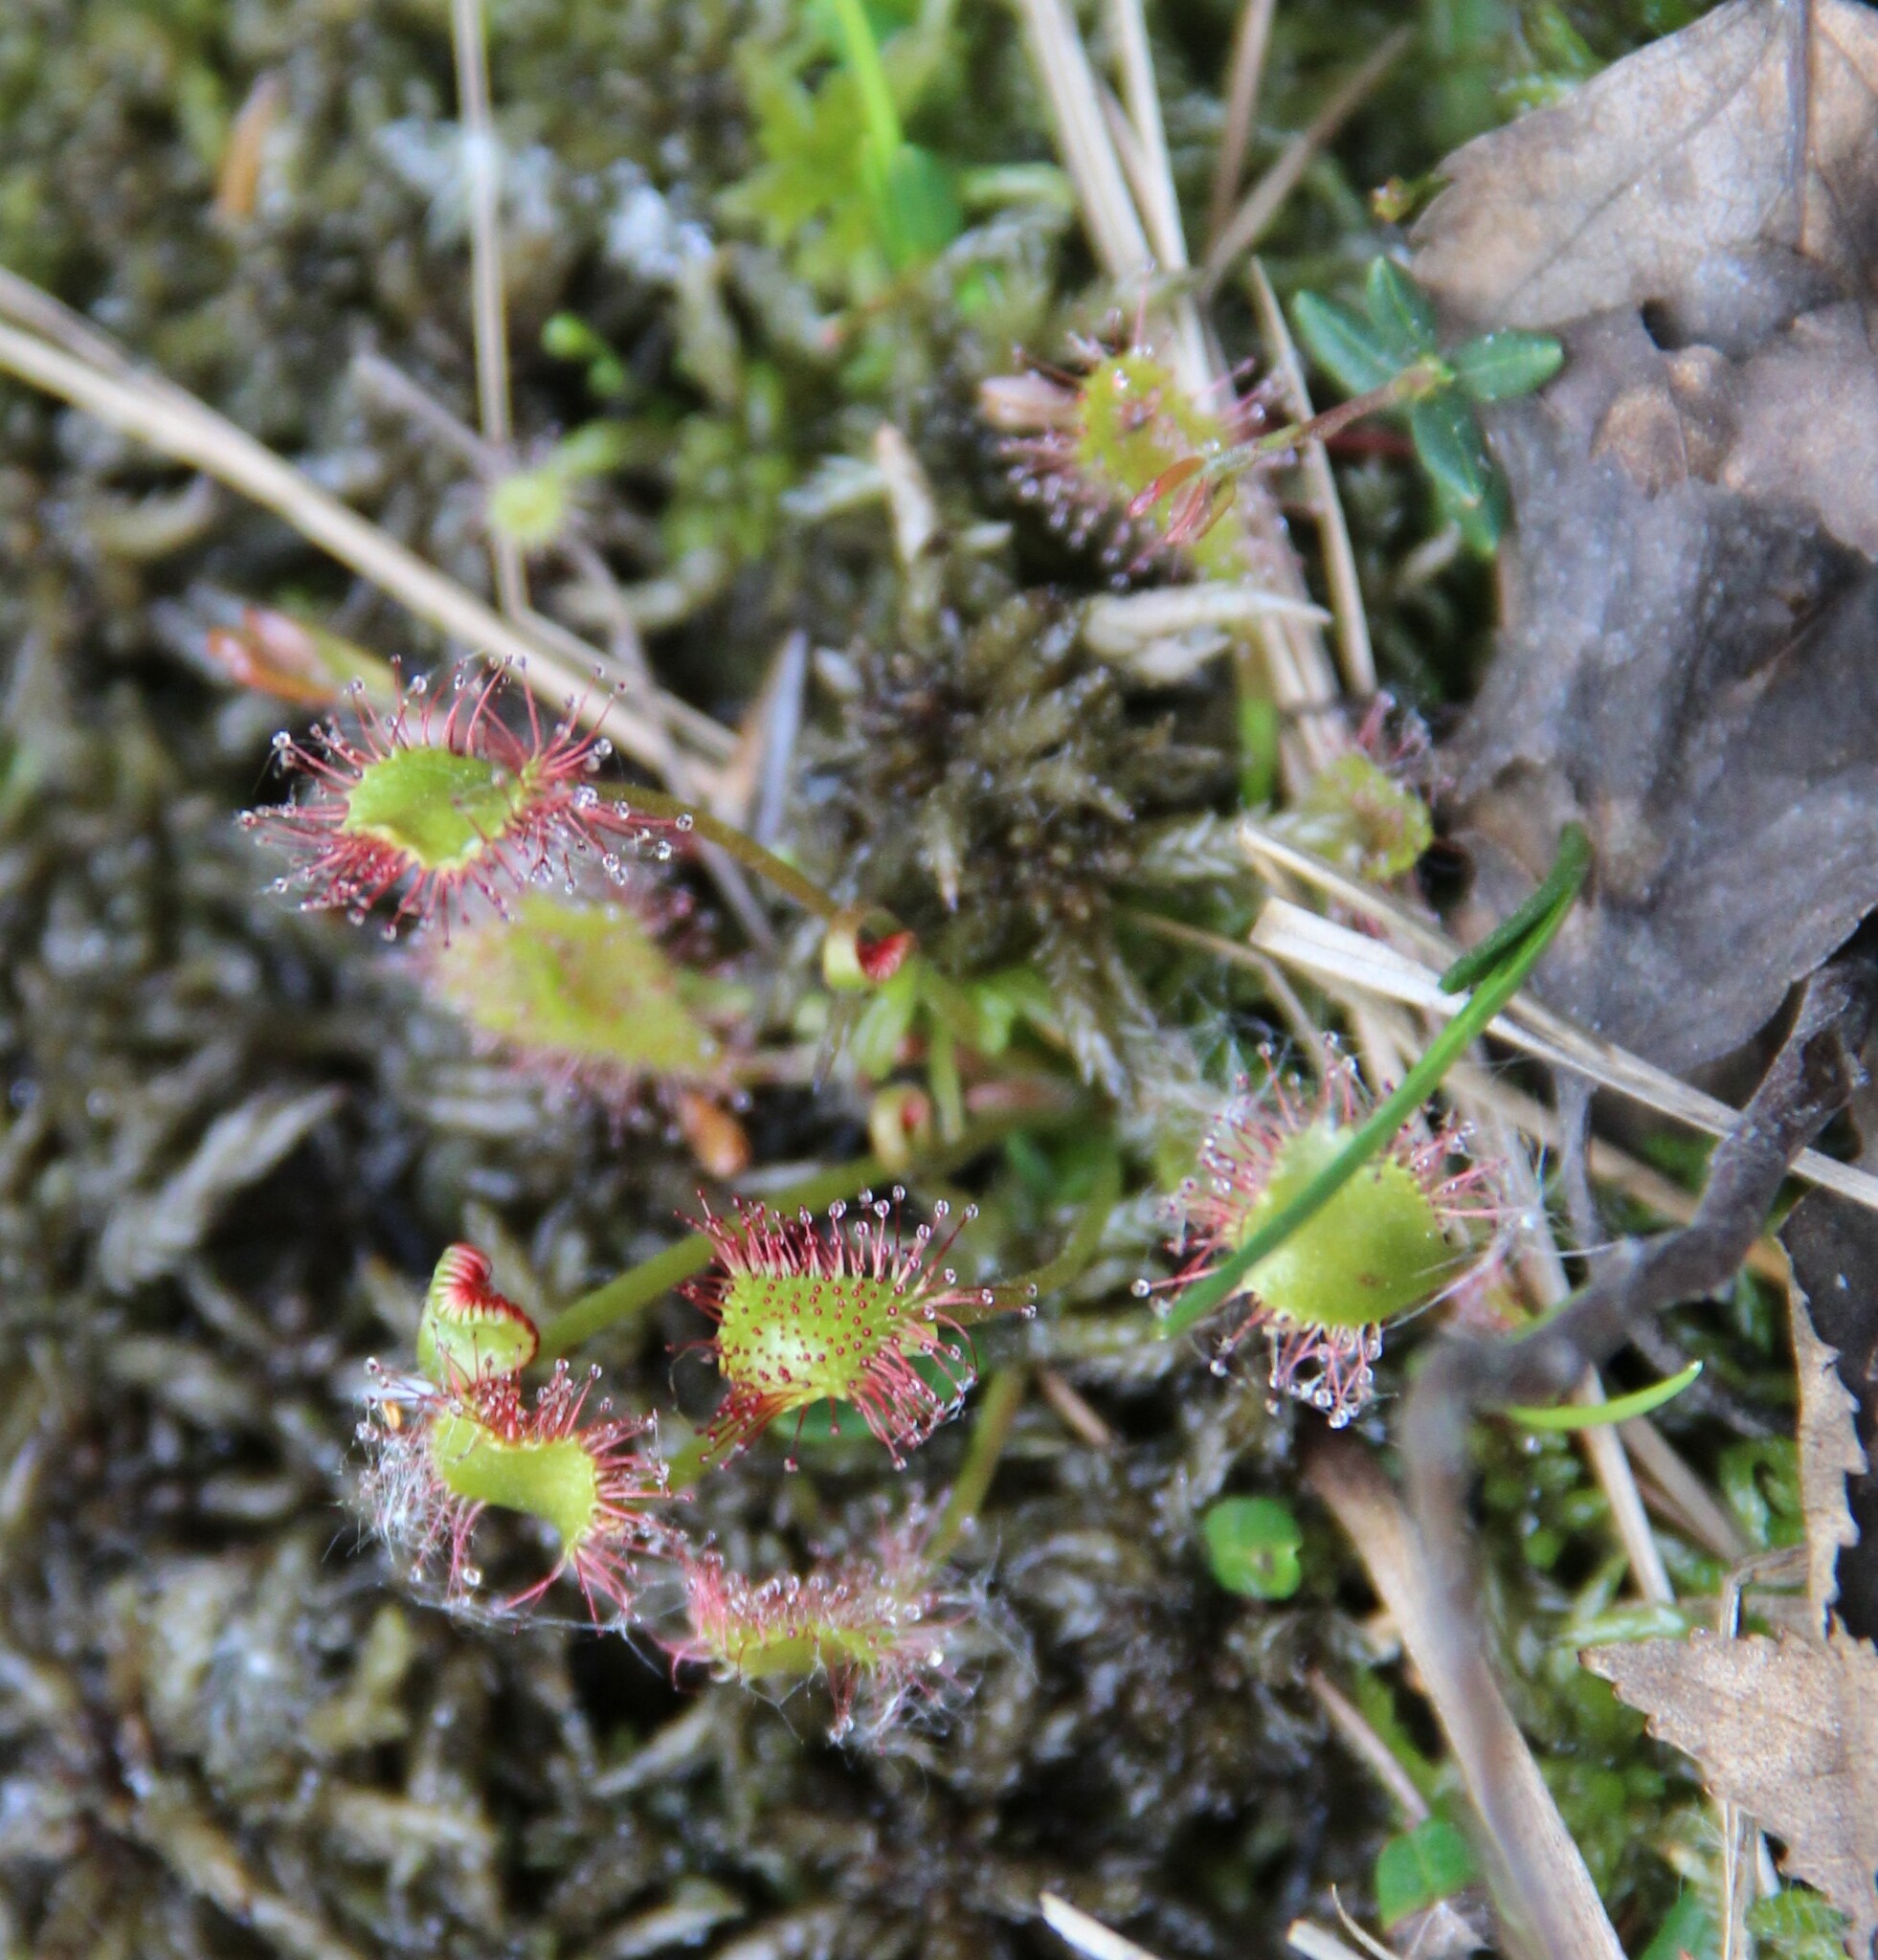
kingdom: Plantae
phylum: Tracheophyta
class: Magnoliopsida
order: Caryophyllales
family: Droseraceae
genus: Drosera
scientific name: Drosera rotundifolia
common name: Round-leaved sundew
